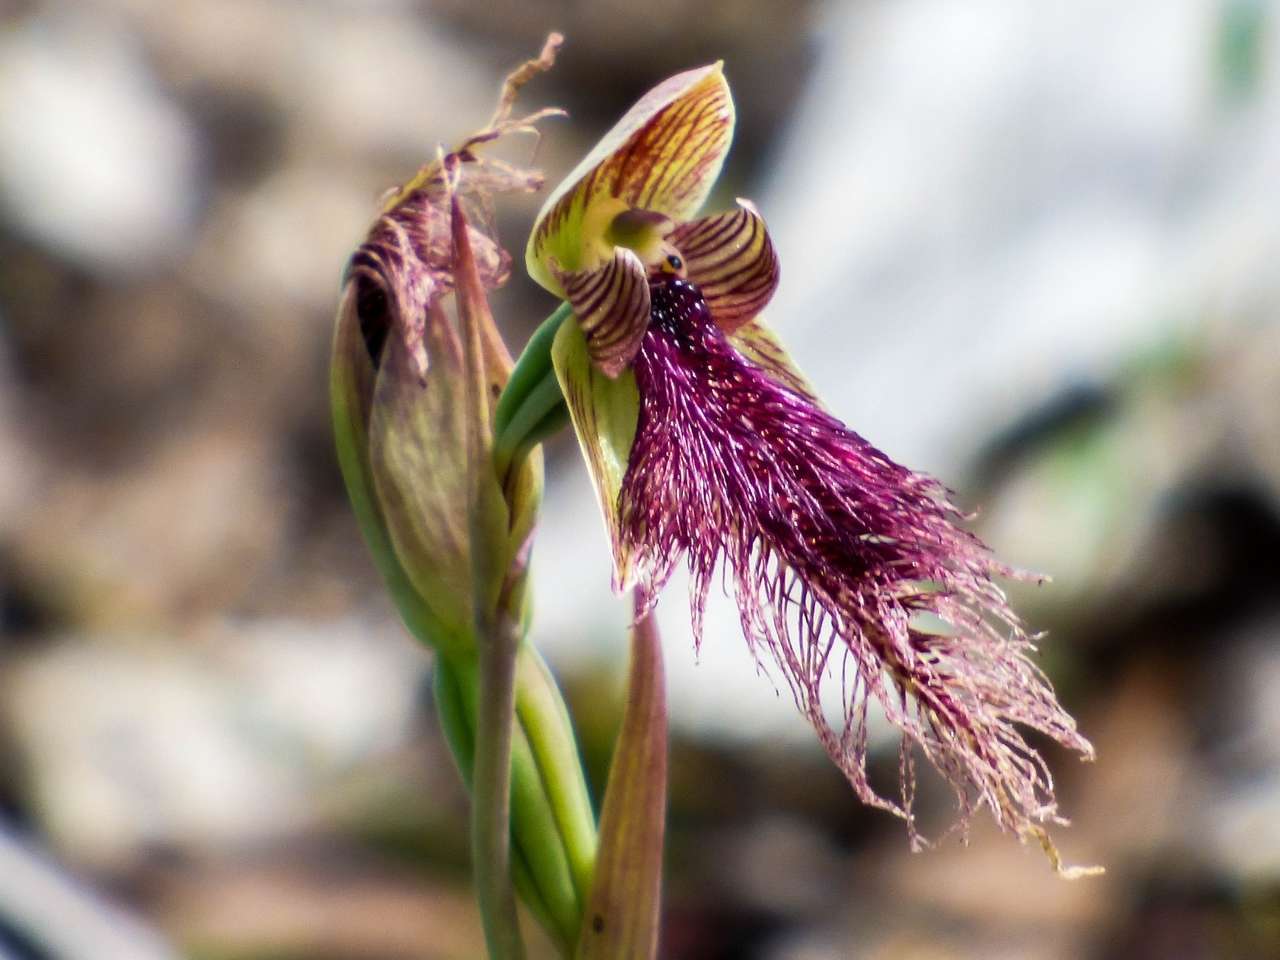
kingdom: Plantae
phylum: Tracheophyta
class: Liliopsida
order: Asparagales
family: Orchidaceae
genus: Calochilus
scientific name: Calochilus robertsonii
